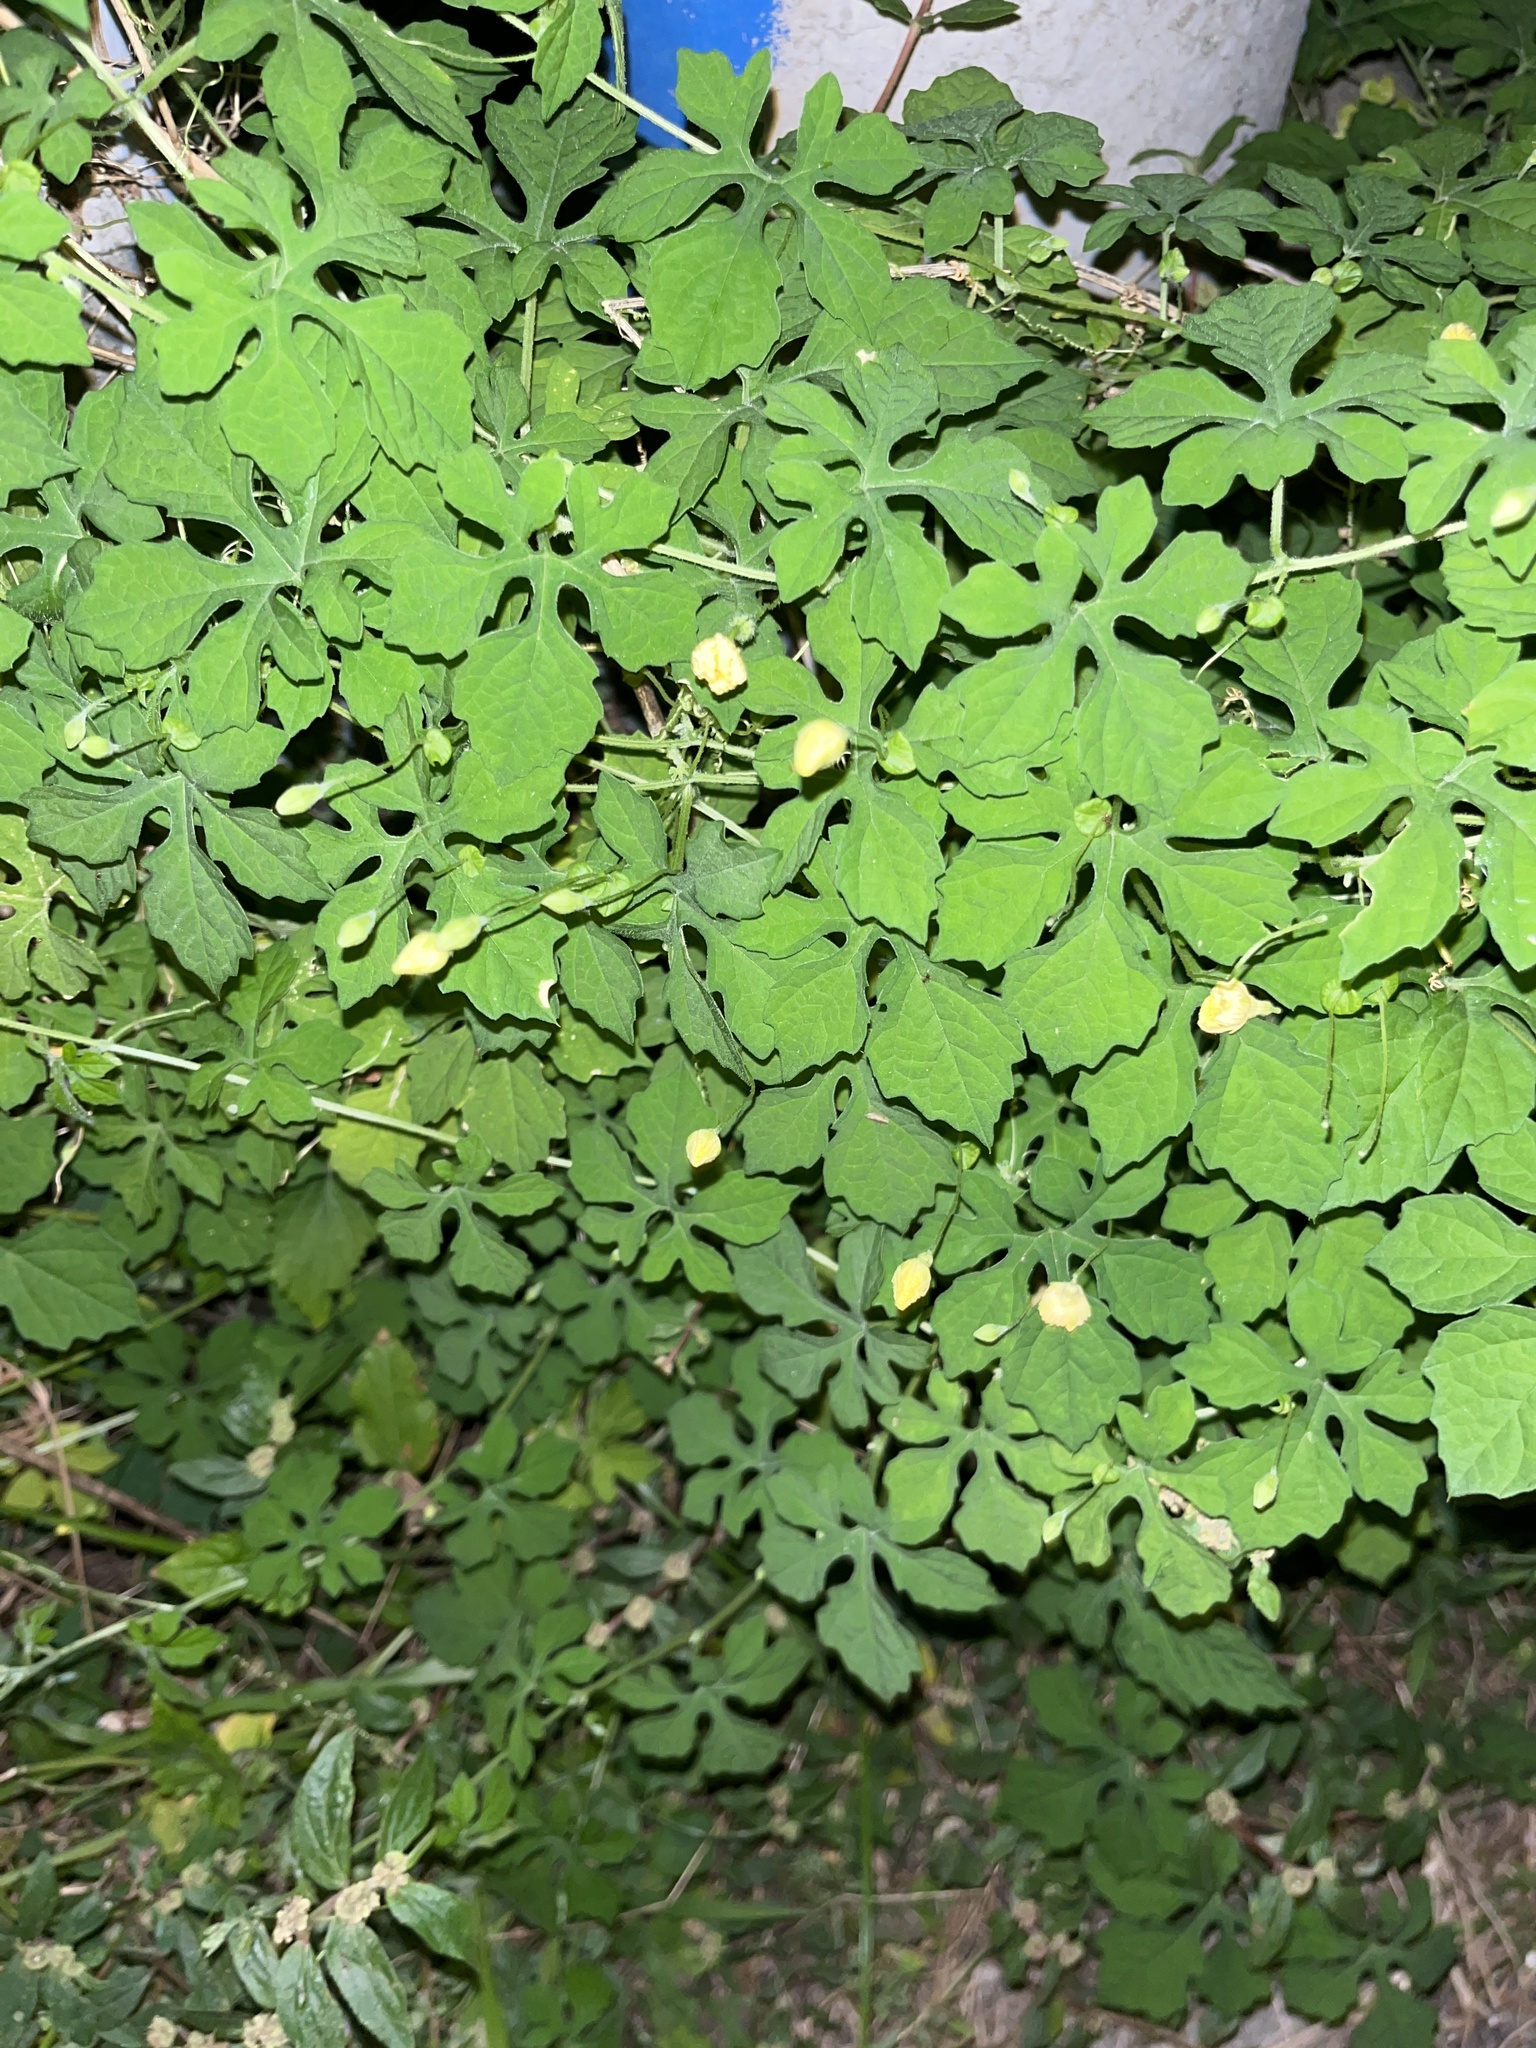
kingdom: Plantae
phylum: Tracheophyta
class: Magnoliopsida
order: Cucurbitales
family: Cucurbitaceae
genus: Momordica
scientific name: Momordica charantia
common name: Balsampear
